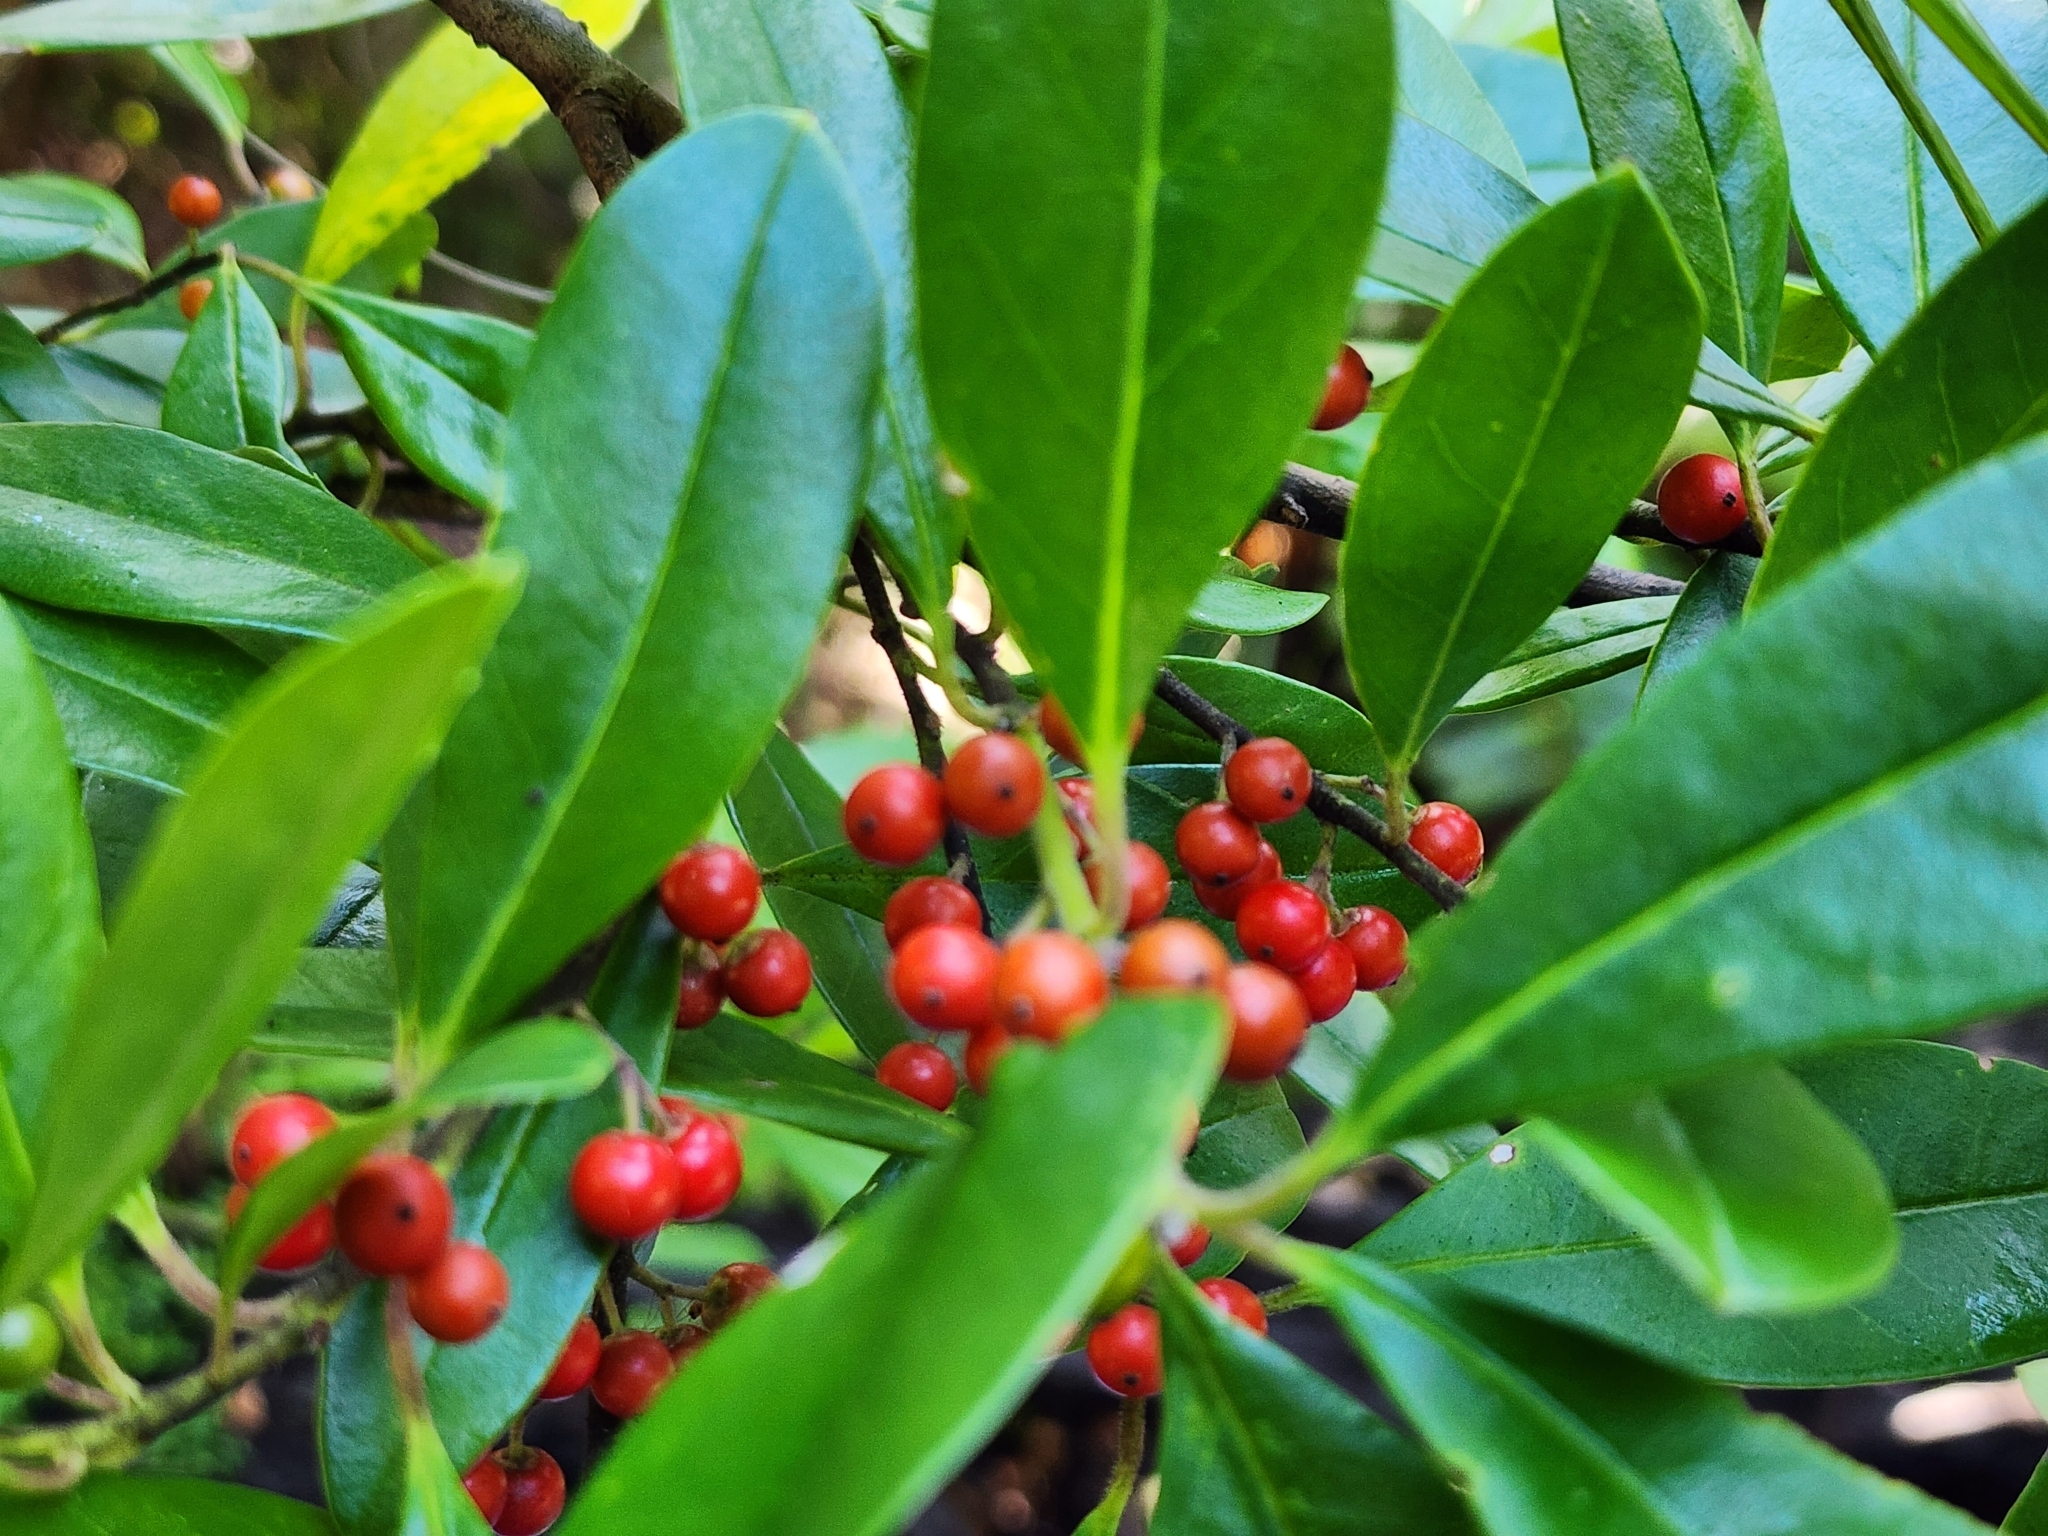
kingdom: Plantae
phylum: Tracheophyta
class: Magnoliopsida
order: Aquifoliales
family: Aquifoliaceae
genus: Ilex
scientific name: Ilex cassine
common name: Dahoon
